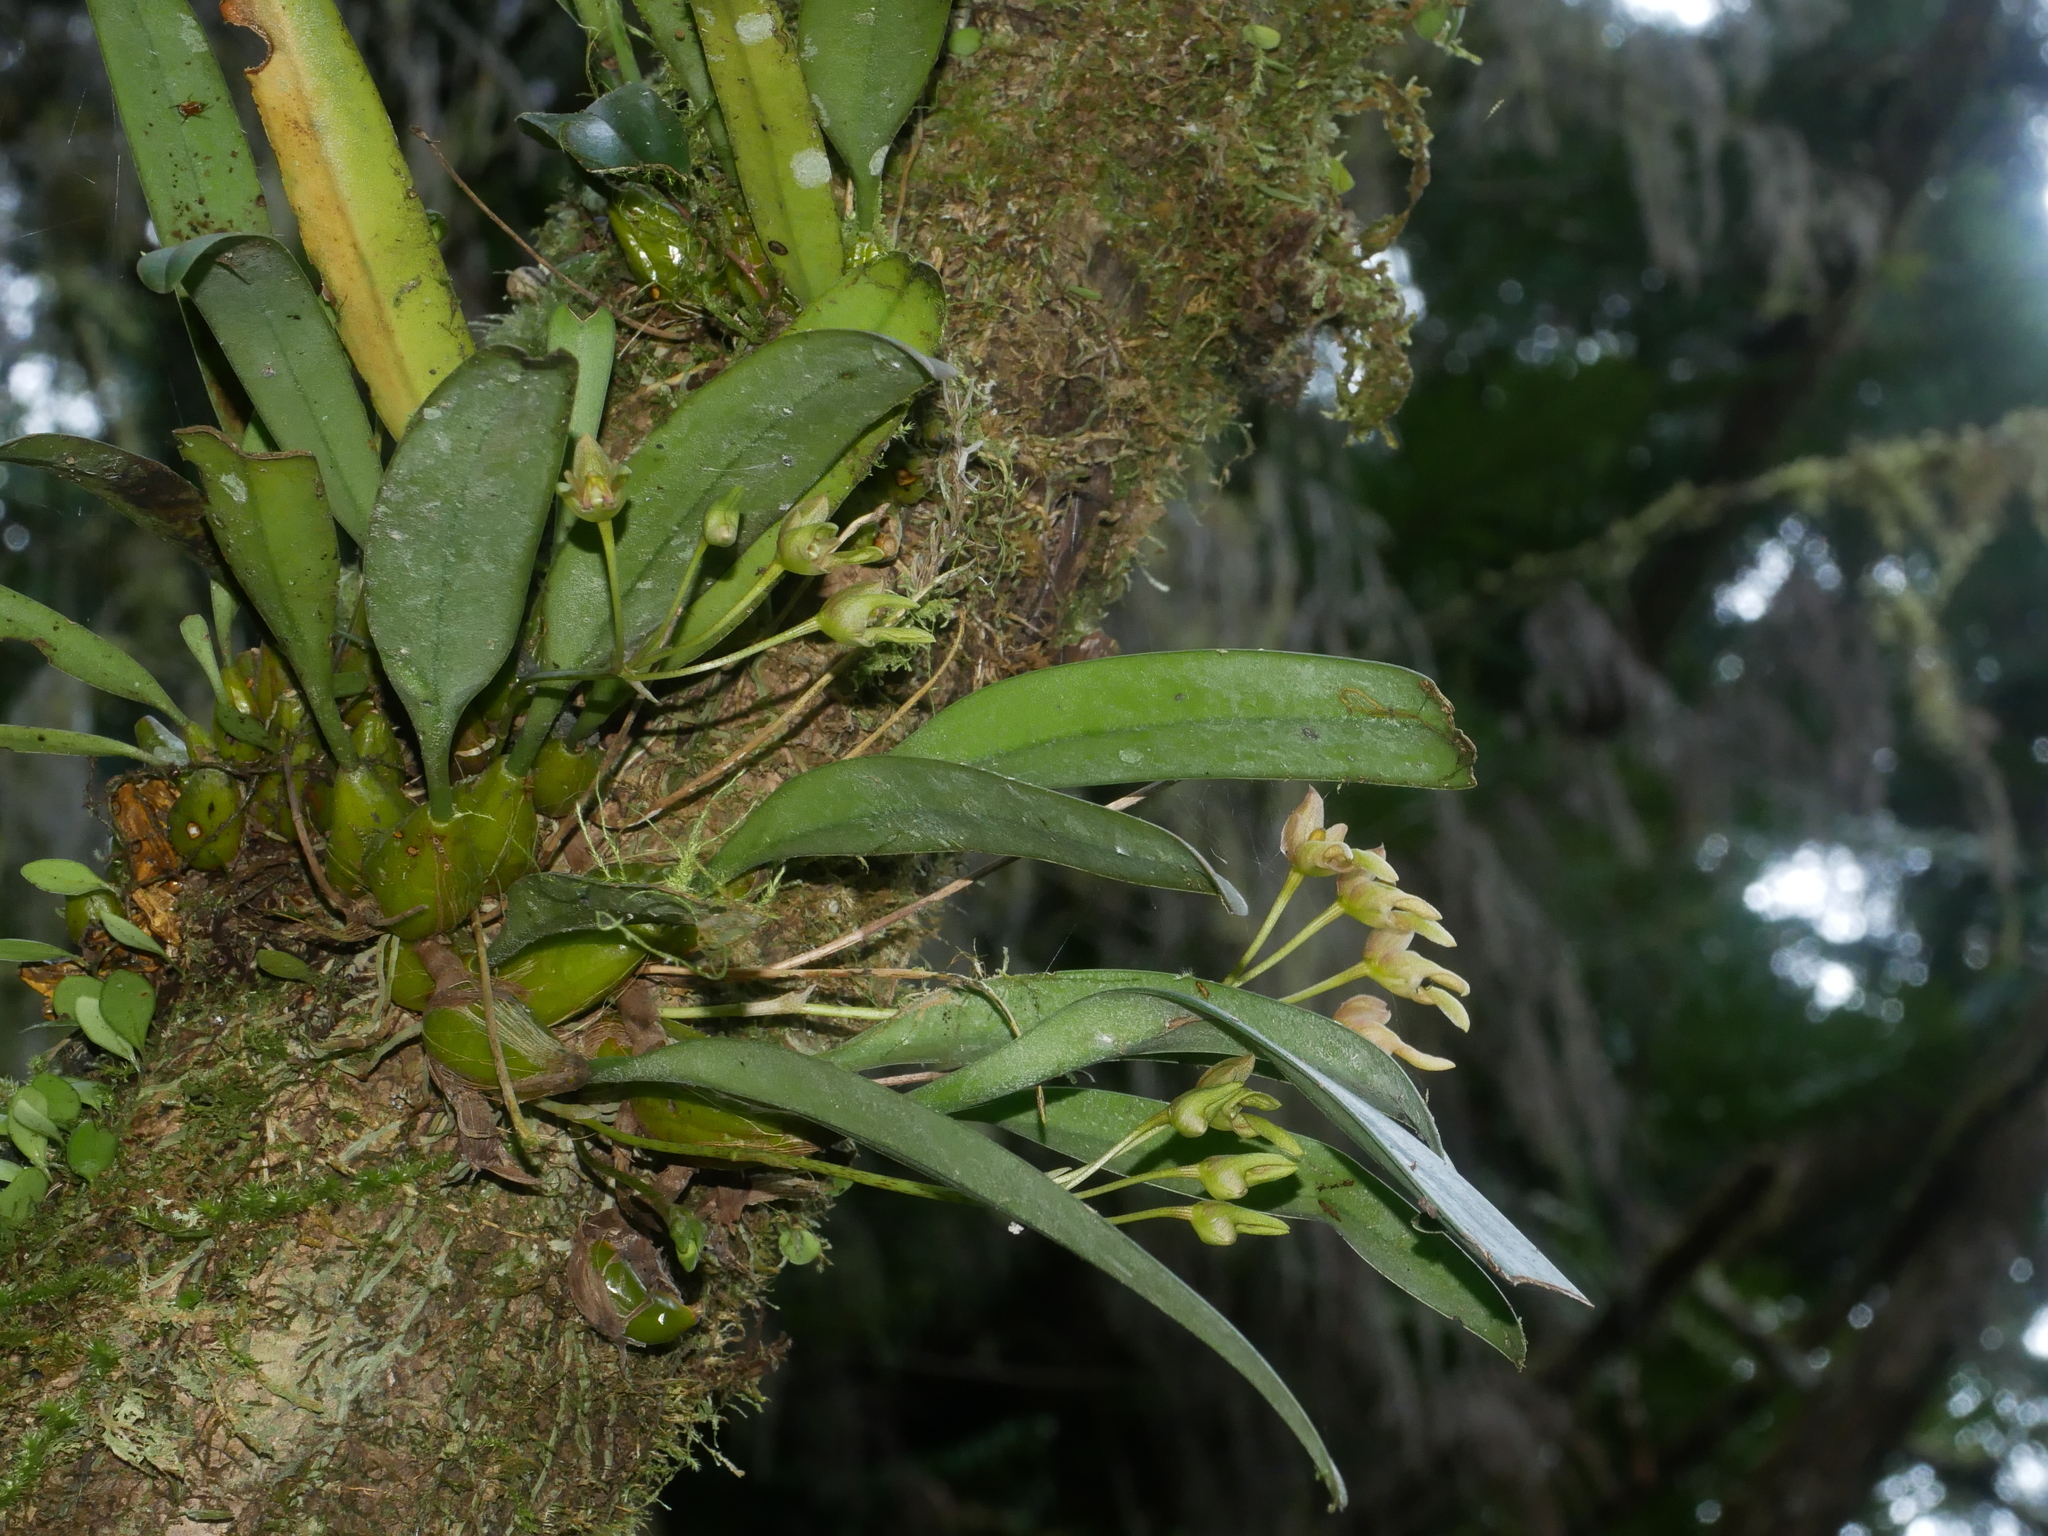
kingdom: Plantae
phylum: Tracheophyta
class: Liliopsida
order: Asparagales
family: Orchidaceae
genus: Bulbophyllum
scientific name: Bulbophyllum umbellatum
